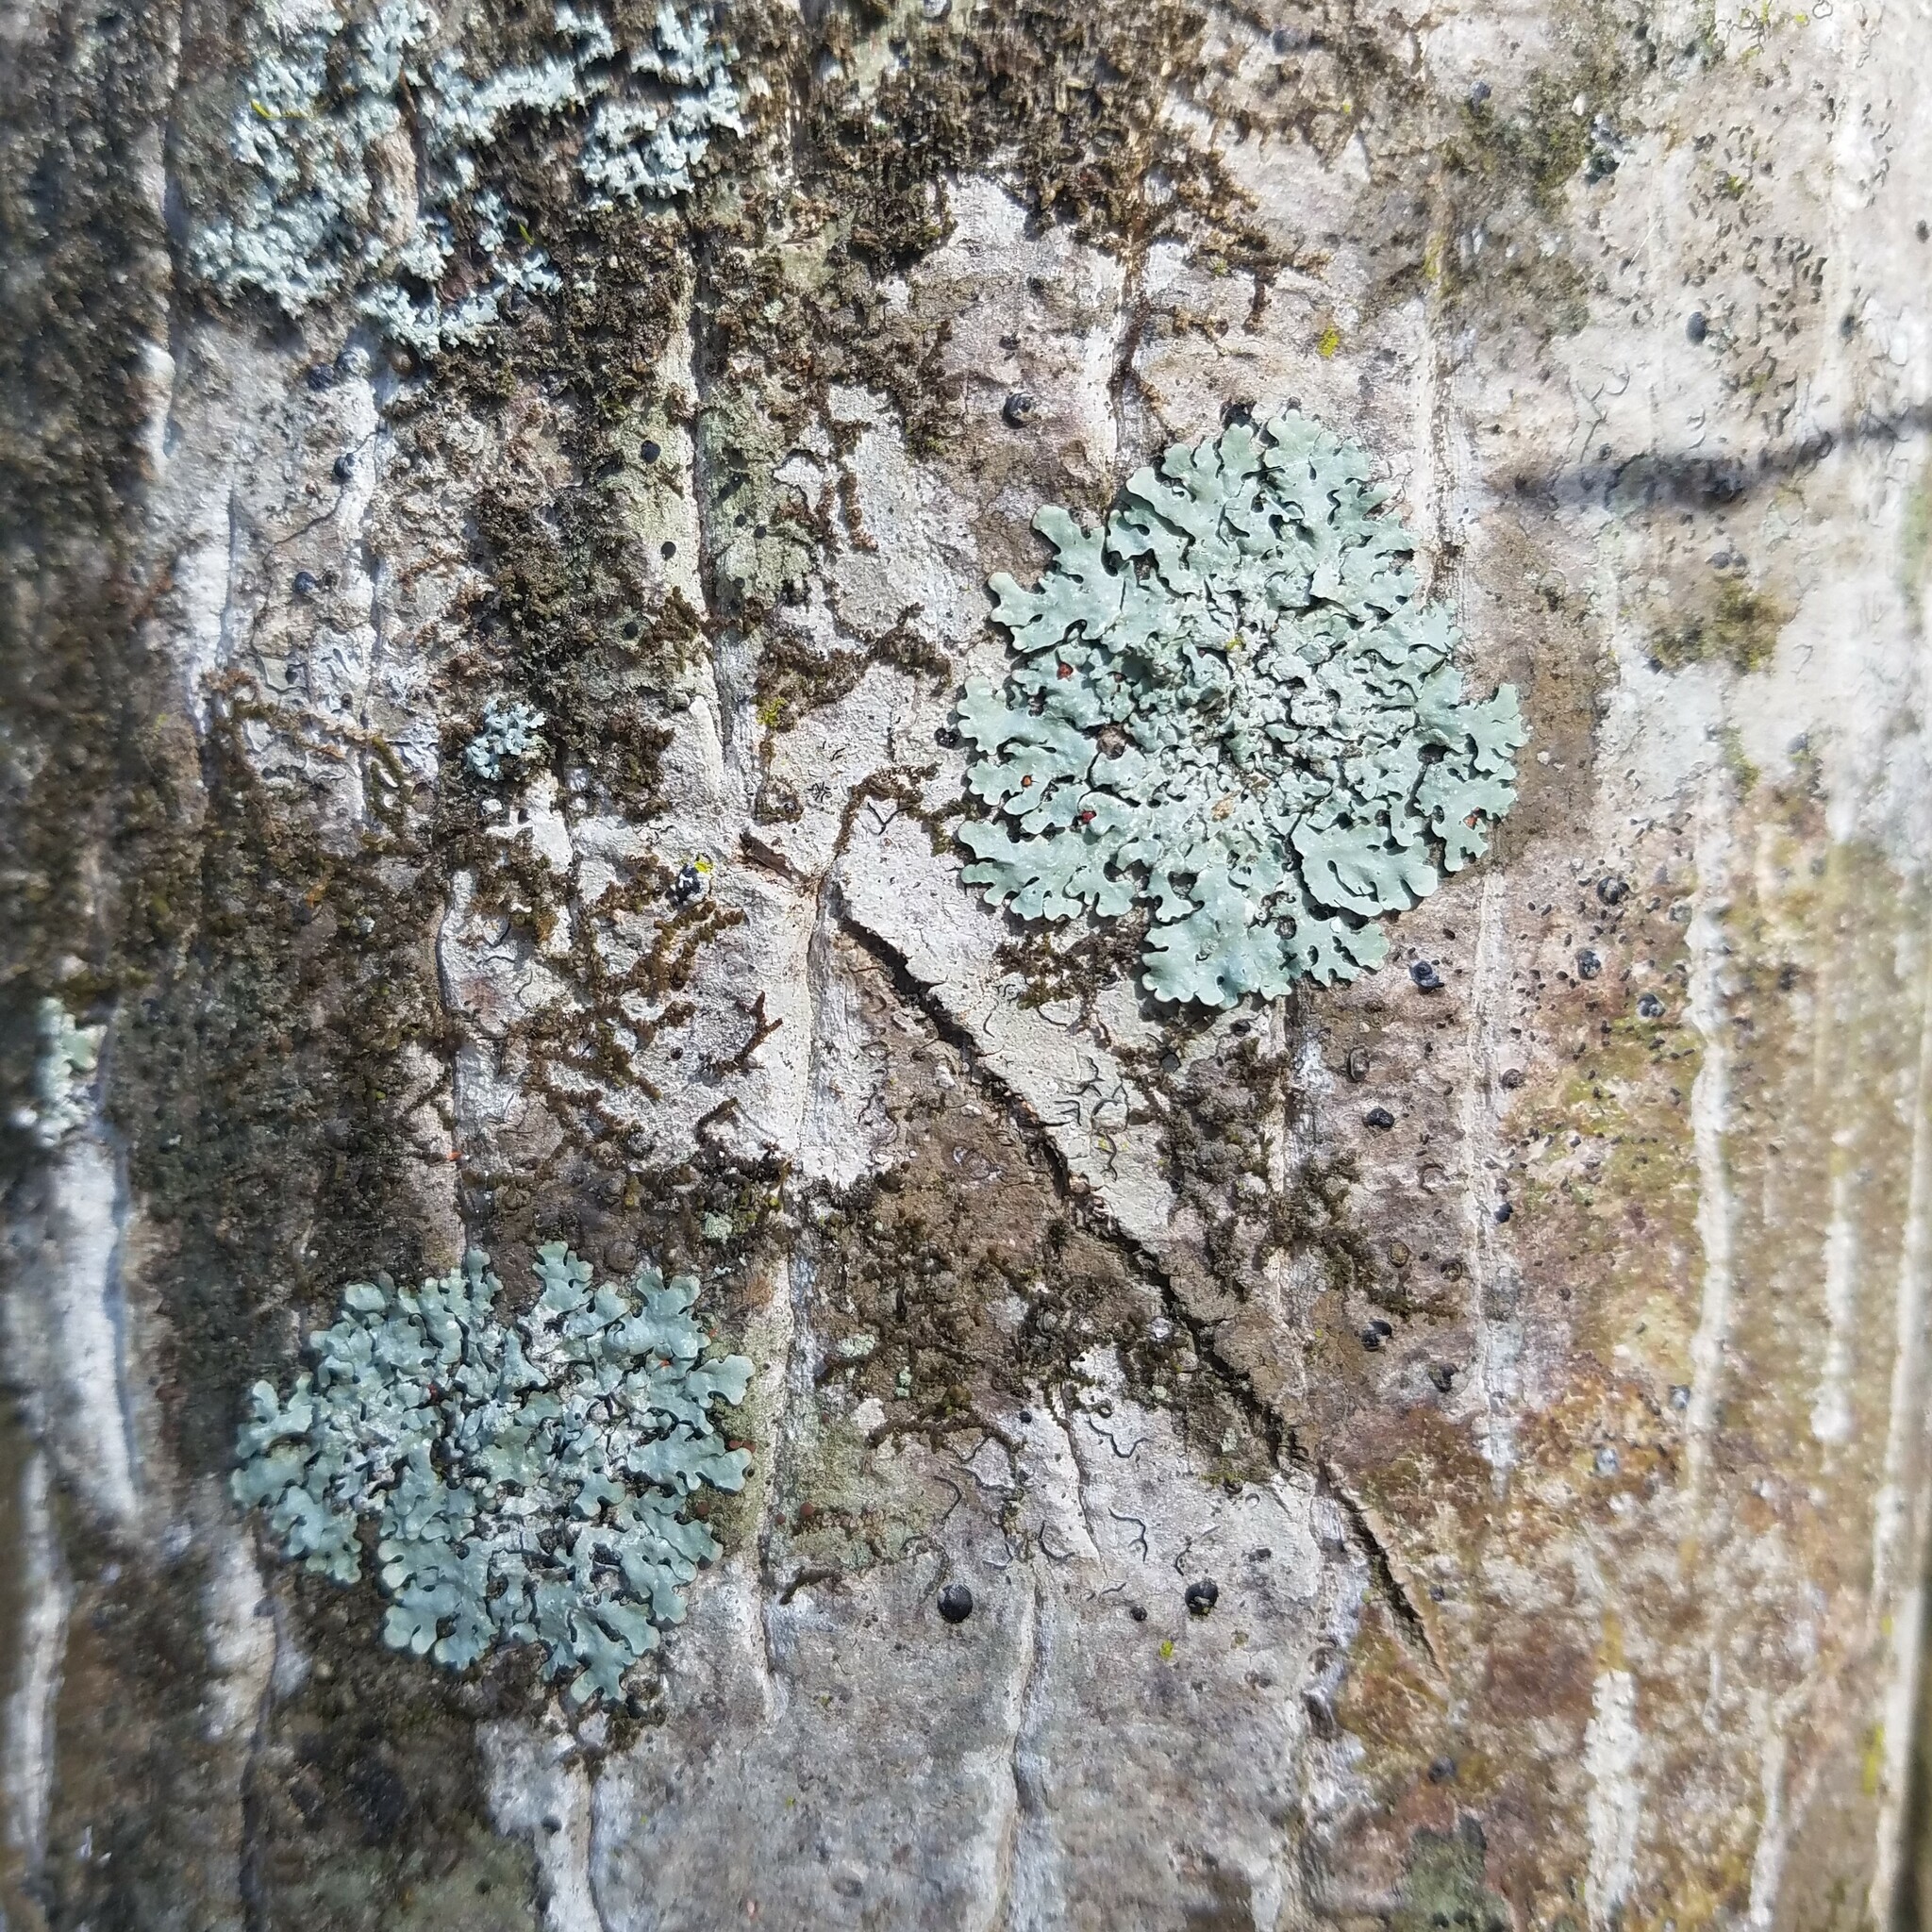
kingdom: Fungi
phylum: Ascomycota
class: Lecanoromycetes
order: Lecanorales
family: Parmeliaceae
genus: Myelochroa
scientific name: Myelochroa aurulenta
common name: Powdery axil-bristle lichen
